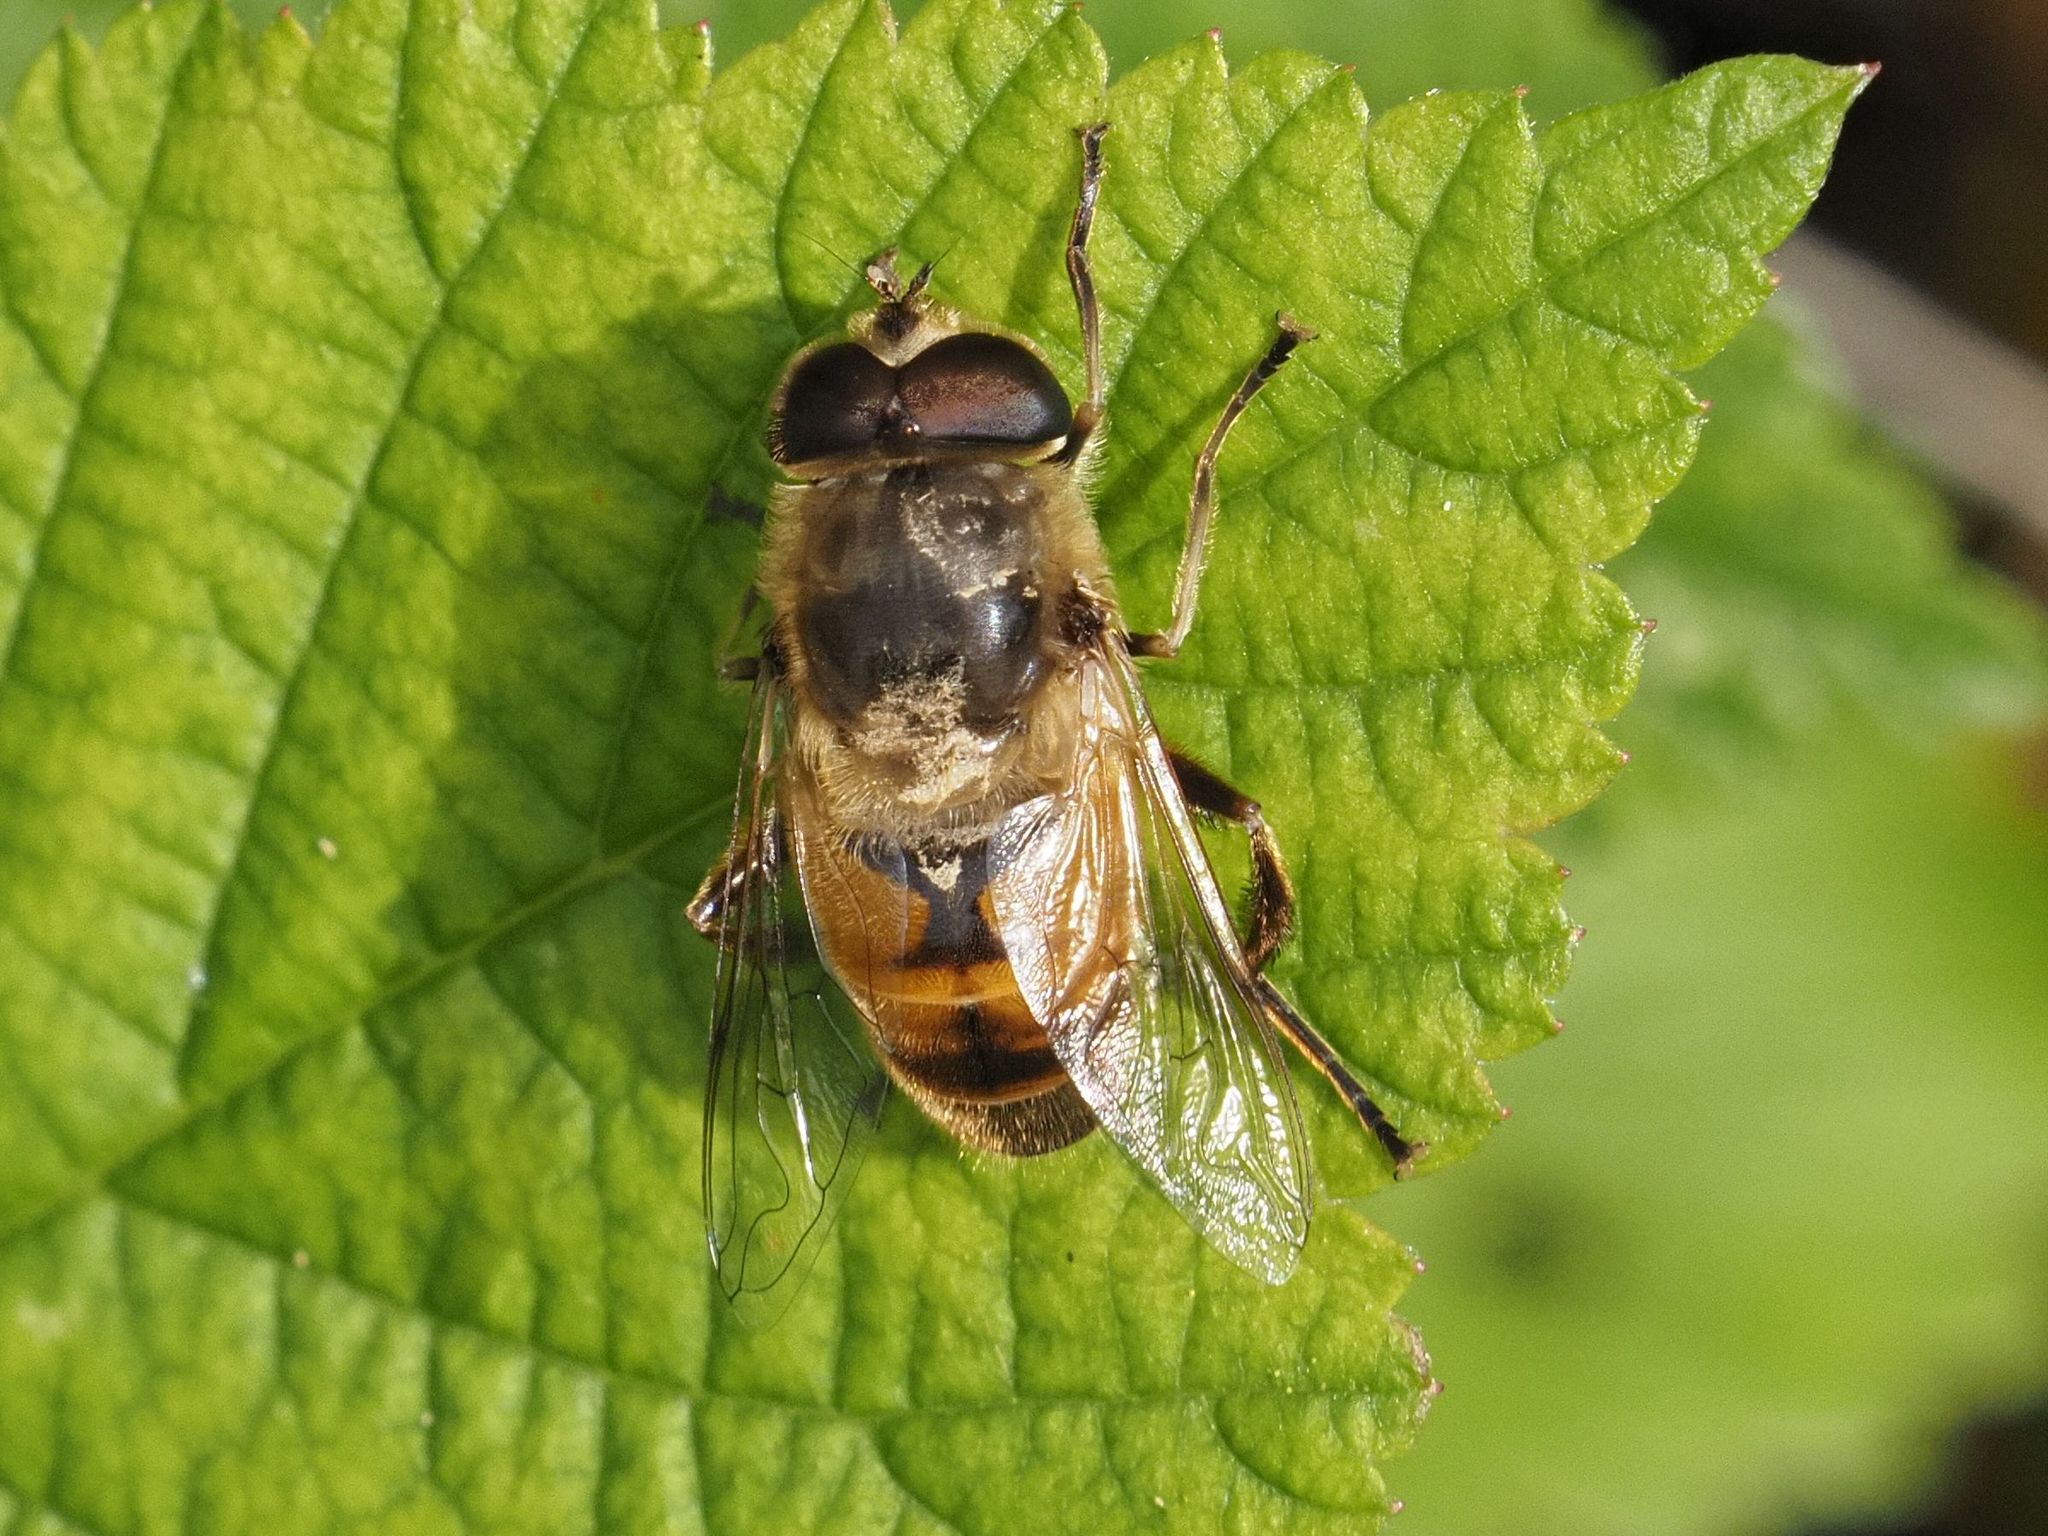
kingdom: Animalia
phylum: Arthropoda
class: Insecta
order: Diptera
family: Syrphidae
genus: Eristalis
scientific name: Eristalis tenax
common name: Drone fly
